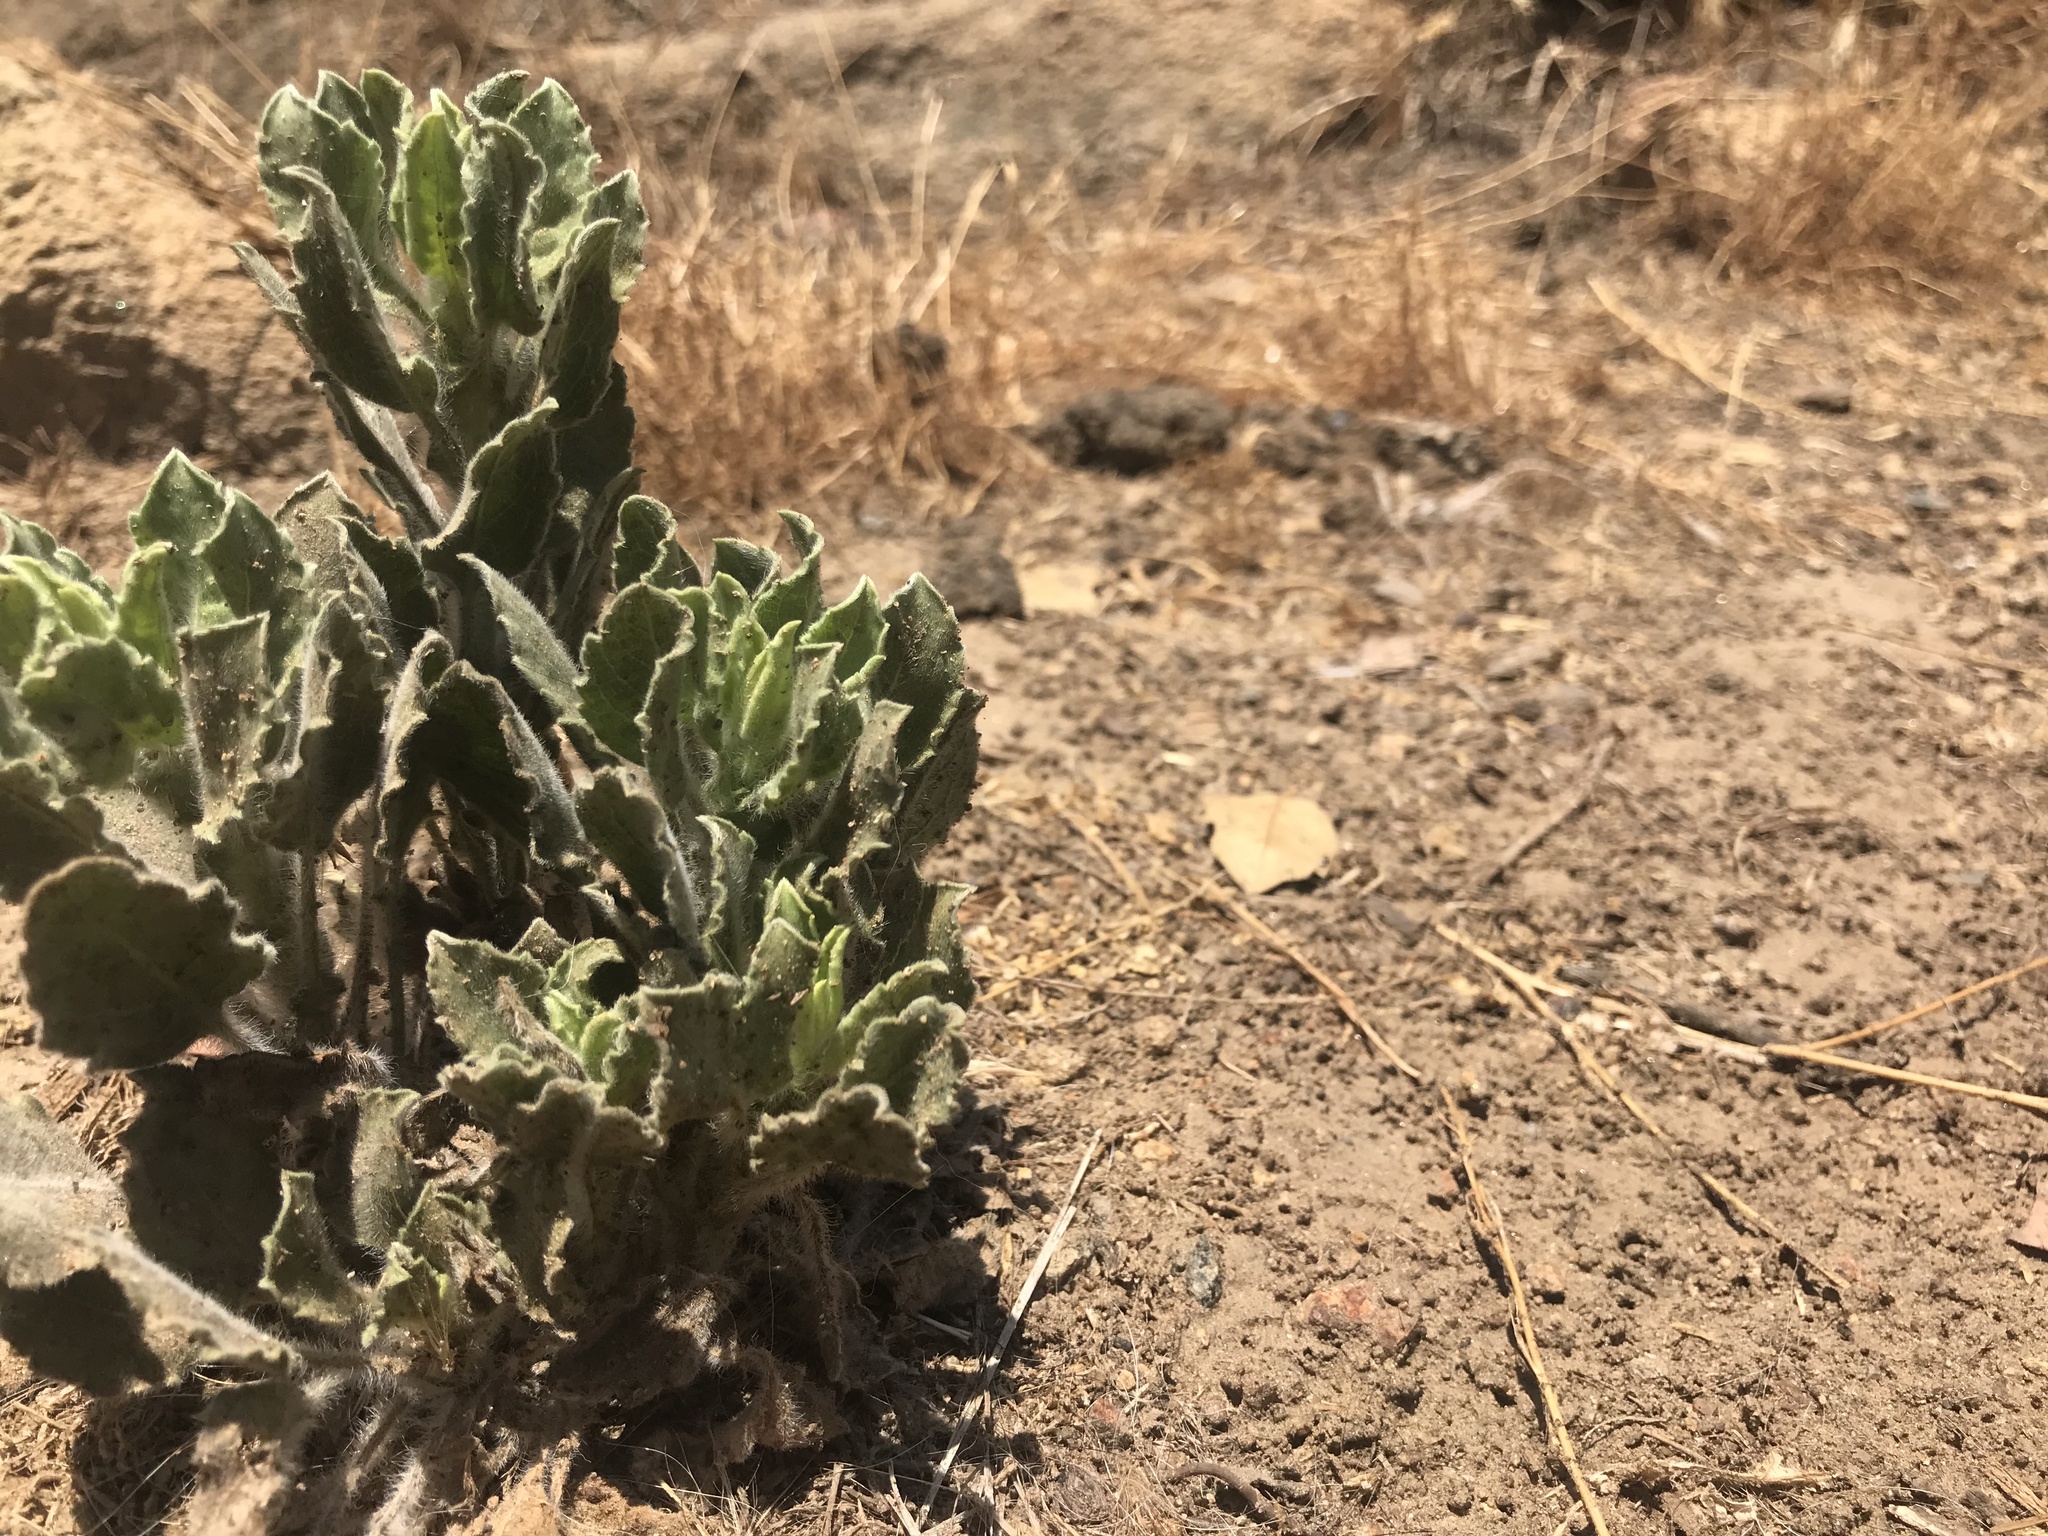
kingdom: Plantae
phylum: Tracheophyta
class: Magnoliopsida
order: Asterales
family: Asteraceae
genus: Heterotheca
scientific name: Heterotheca grandiflora
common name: Telegraphweed
